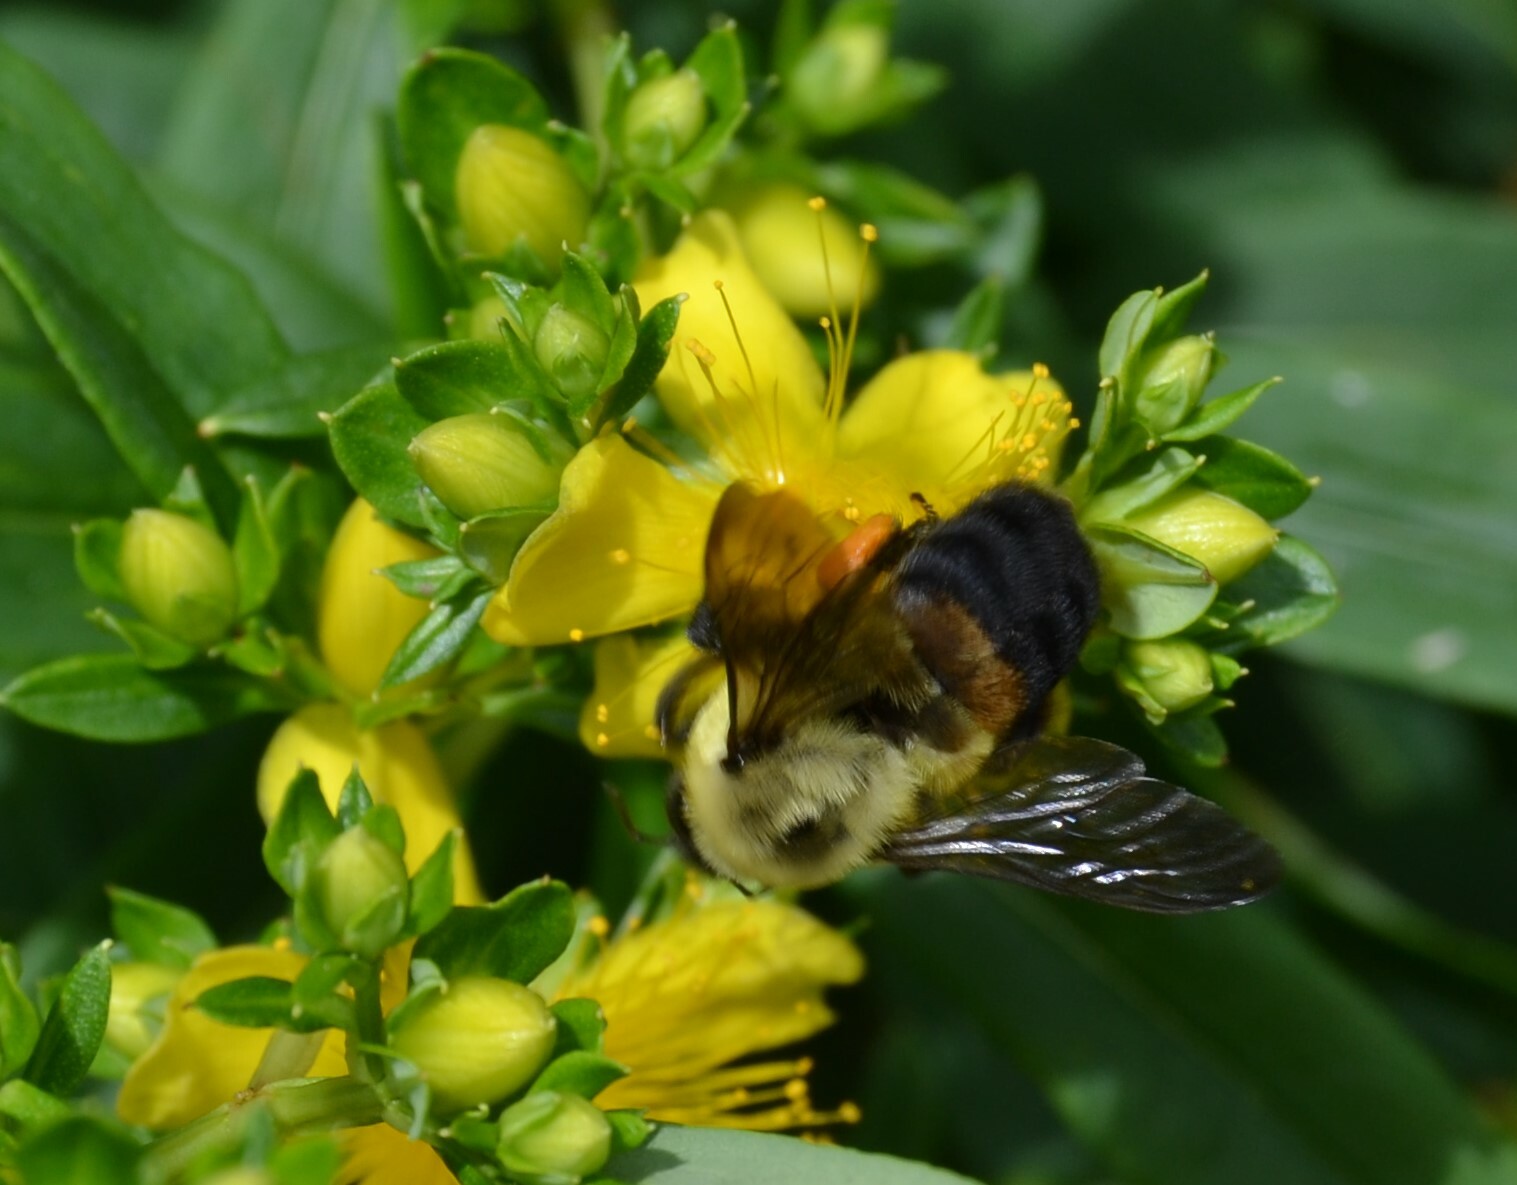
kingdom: Animalia
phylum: Arthropoda
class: Insecta
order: Hymenoptera
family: Apidae
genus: Bombus
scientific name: Bombus griseocollis
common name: Brown-belted bumble bee
